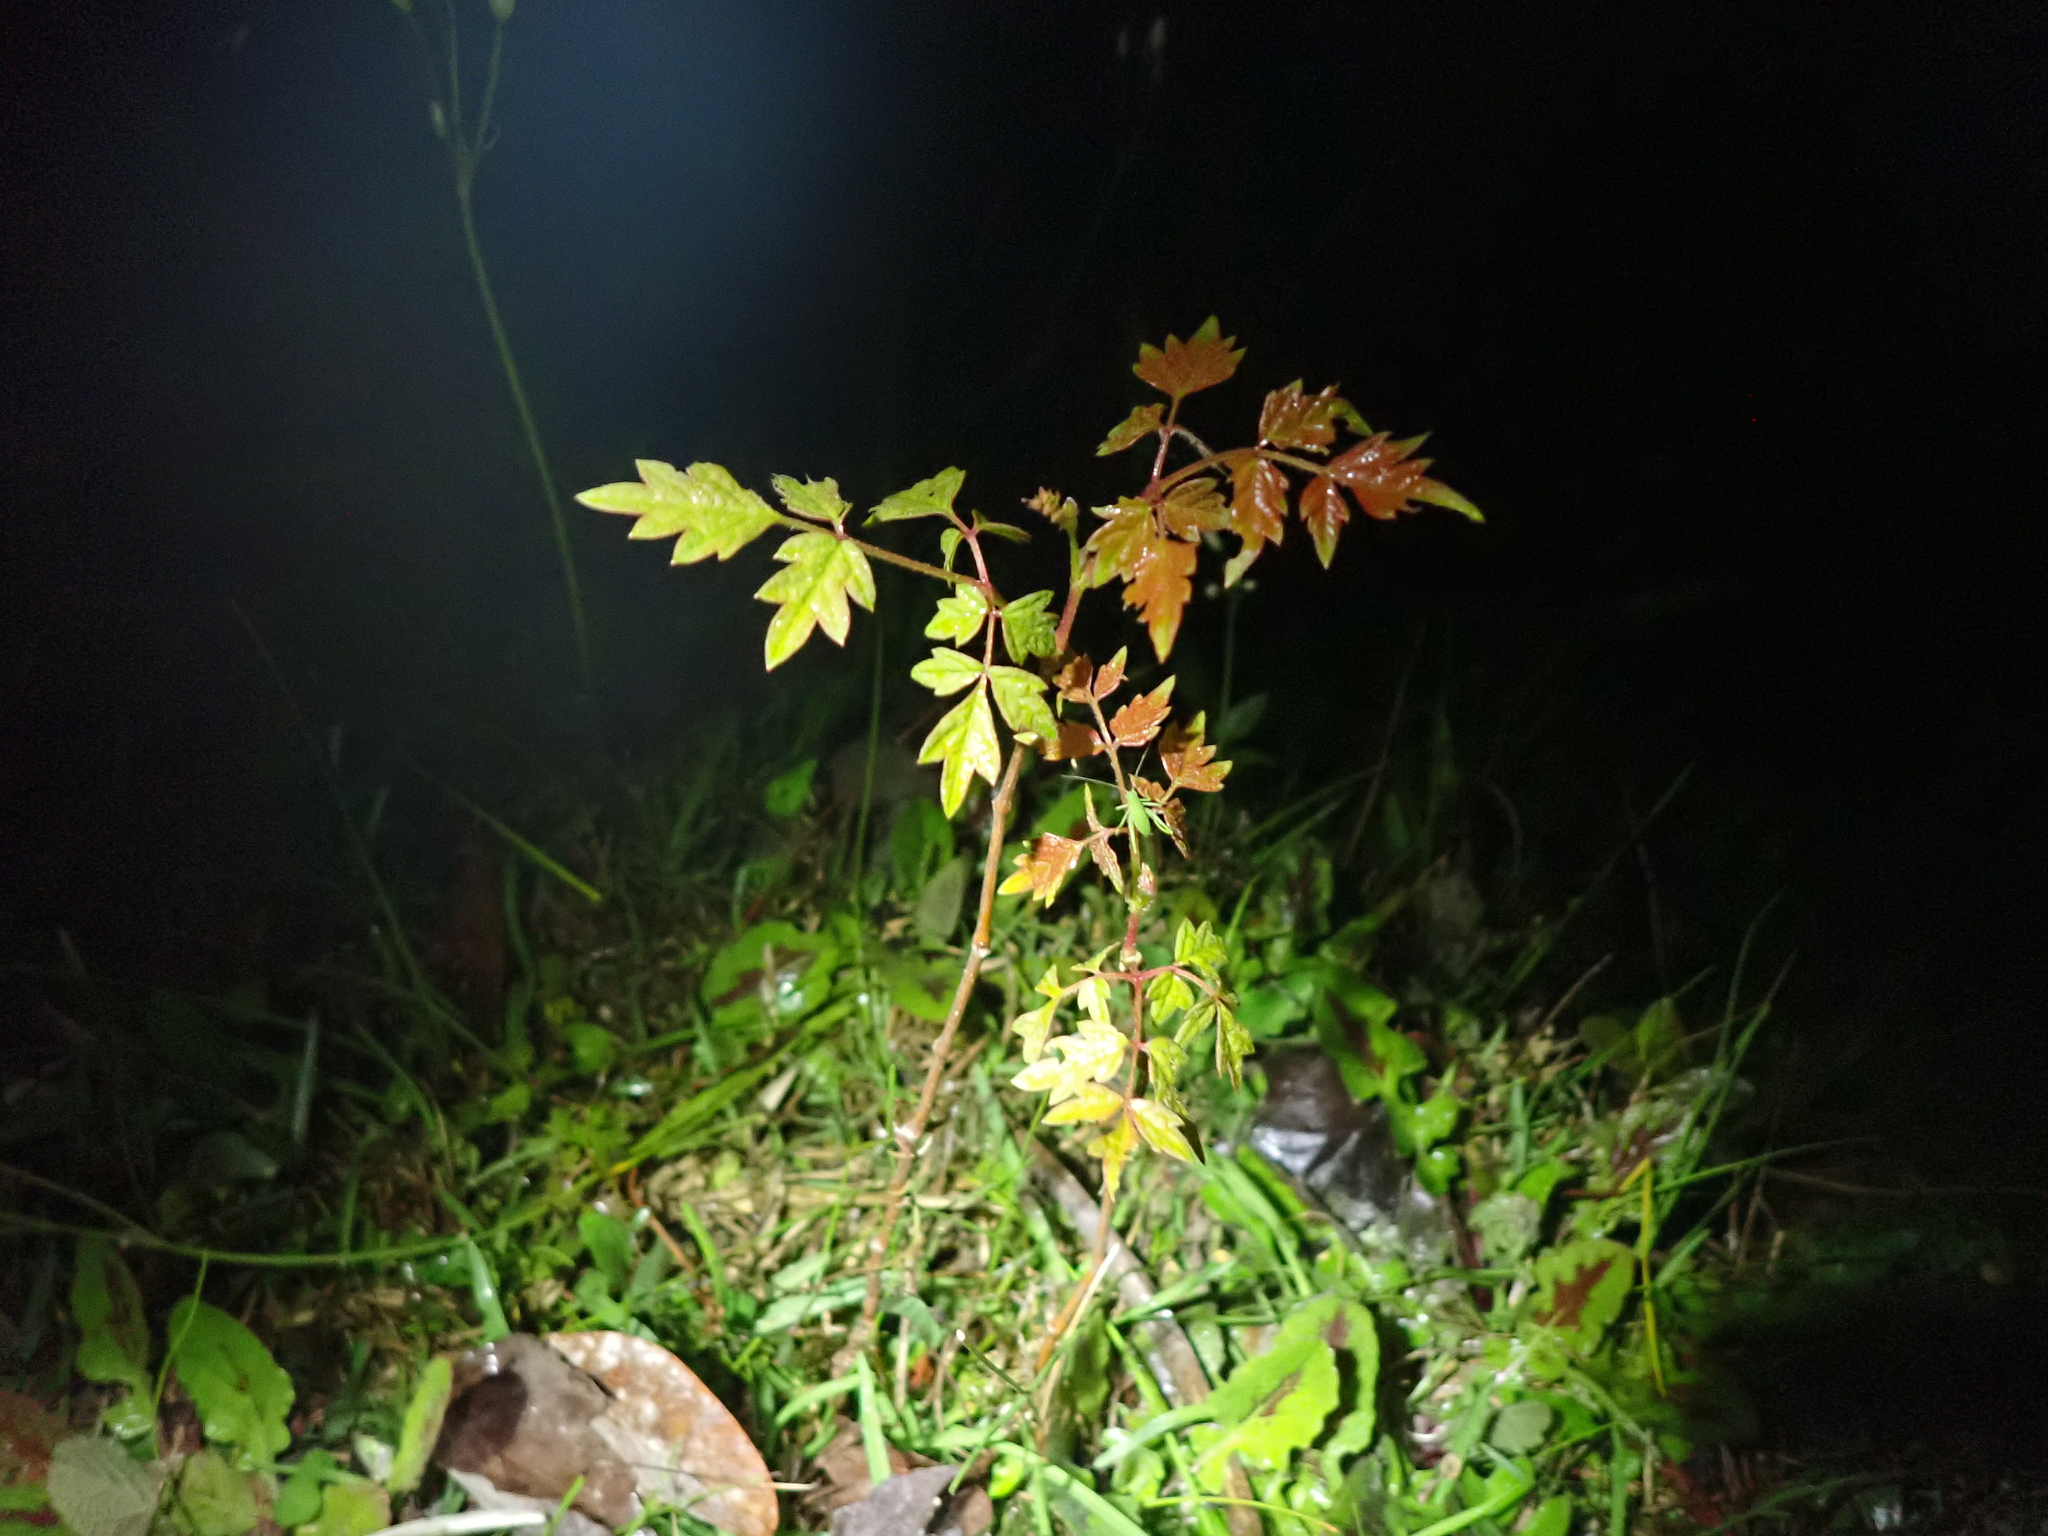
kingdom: Plantae
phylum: Tracheophyta
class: Magnoliopsida
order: Vitales
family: Vitaceae
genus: Nekemias
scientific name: Nekemias arborea
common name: Peppervine
